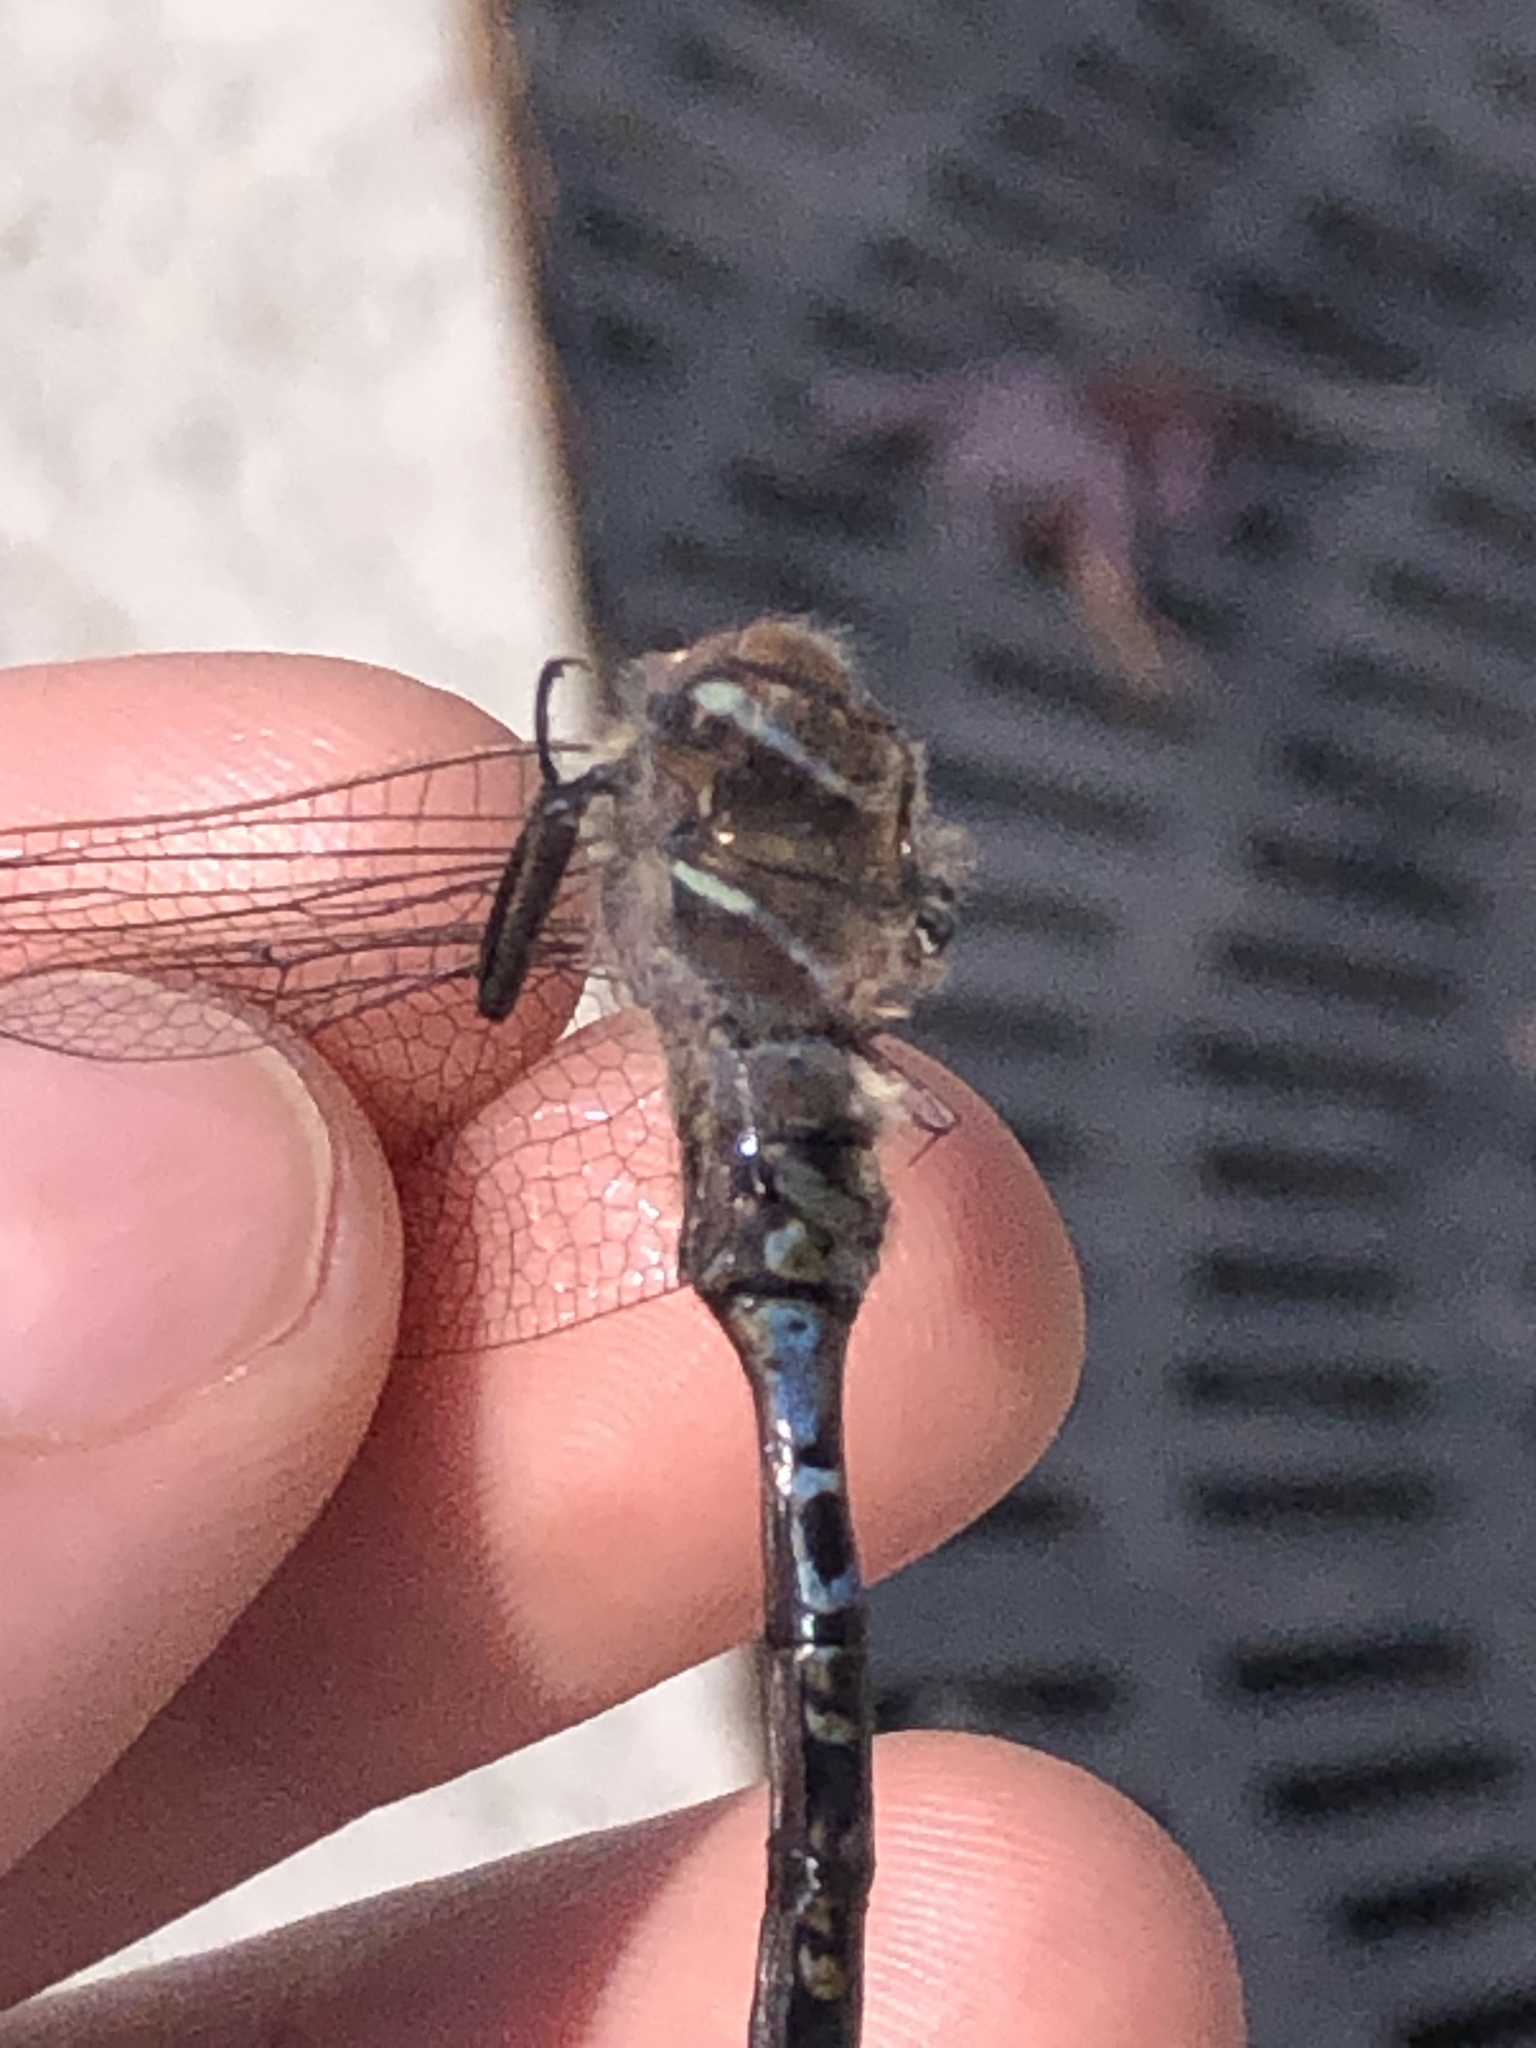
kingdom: Animalia
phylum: Arthropoda
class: Insecta
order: Odonata
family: Aeshnidae
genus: Aeshna
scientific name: Aeshna interrupta
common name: Variable darner
